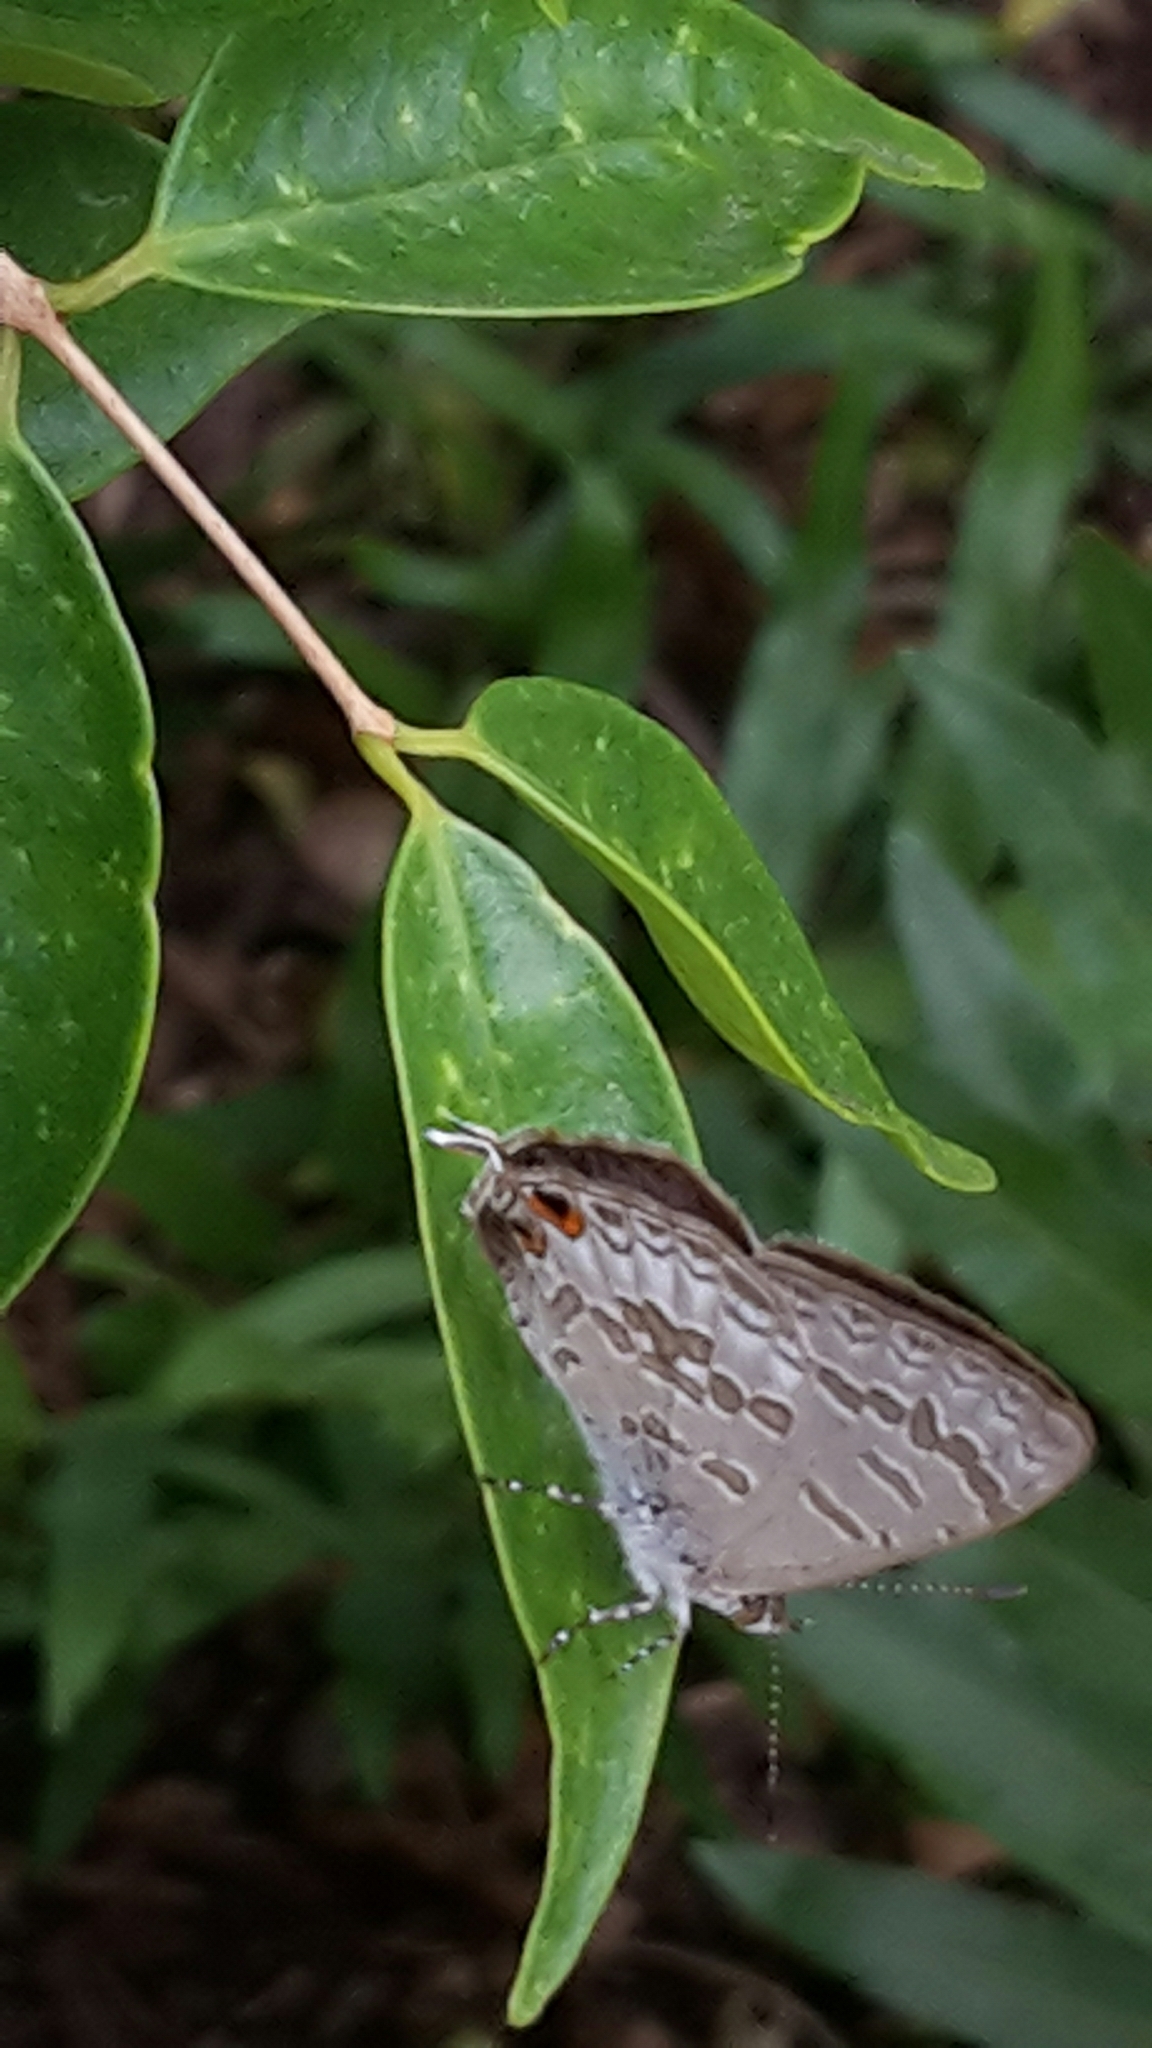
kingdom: Animalia
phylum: Arthropoda
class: Insecta
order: Lepidoptera
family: Lycaenidae
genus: Catopyrops
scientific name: Catopyrops florinda
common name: Speckled line-blue
